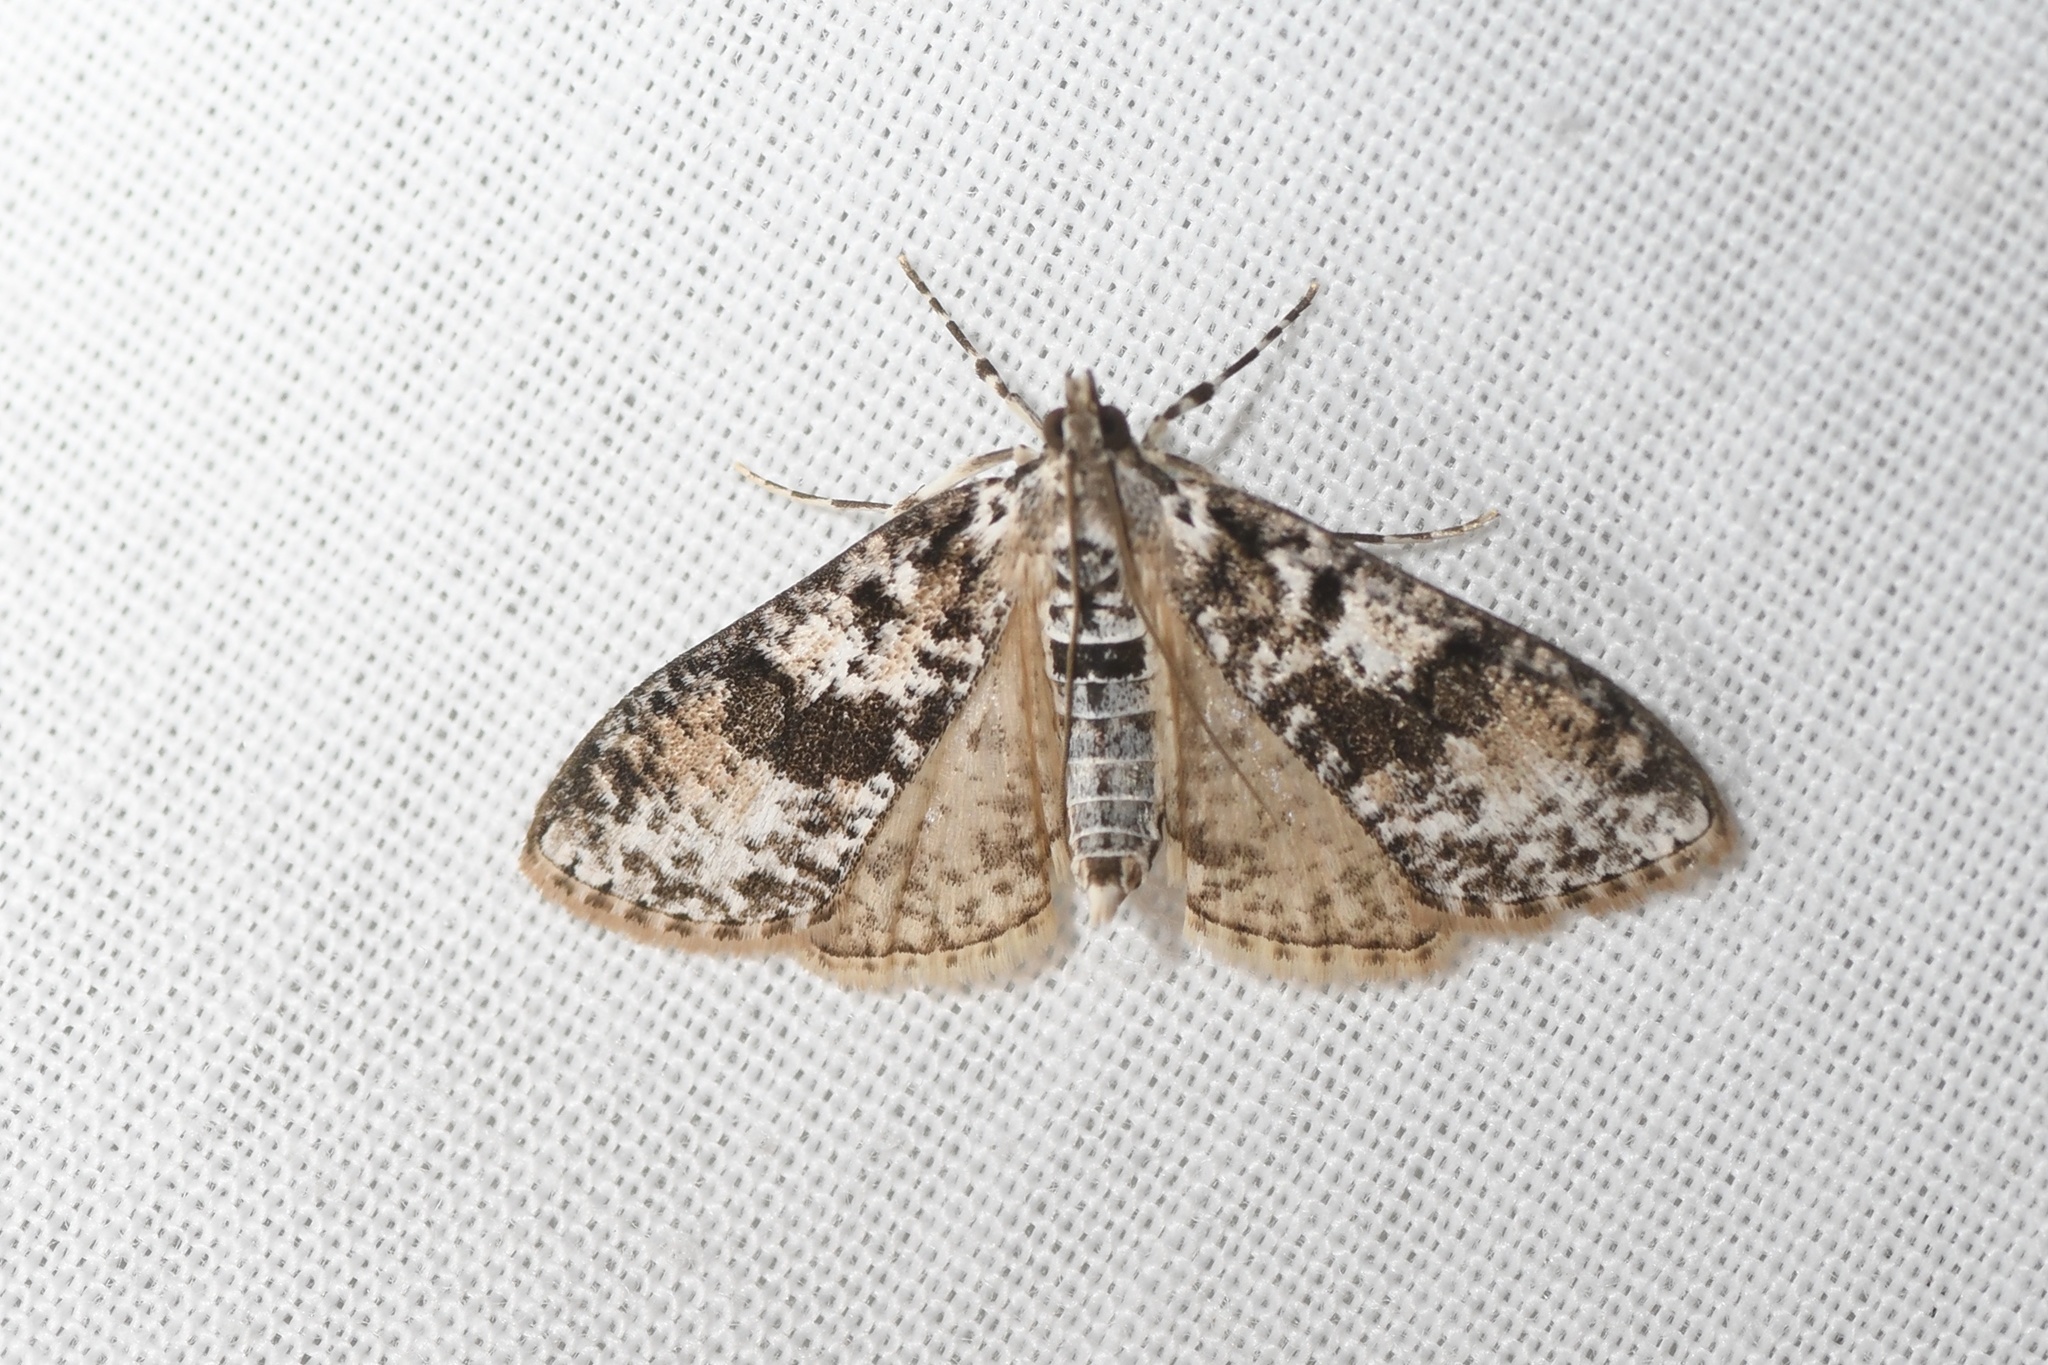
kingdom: Animalia
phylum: Arthropoda
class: Insecta
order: Lepidoptera
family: Crambidae
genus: Palpita
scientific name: Palpita magniferalis
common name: Splendid palpita moth
